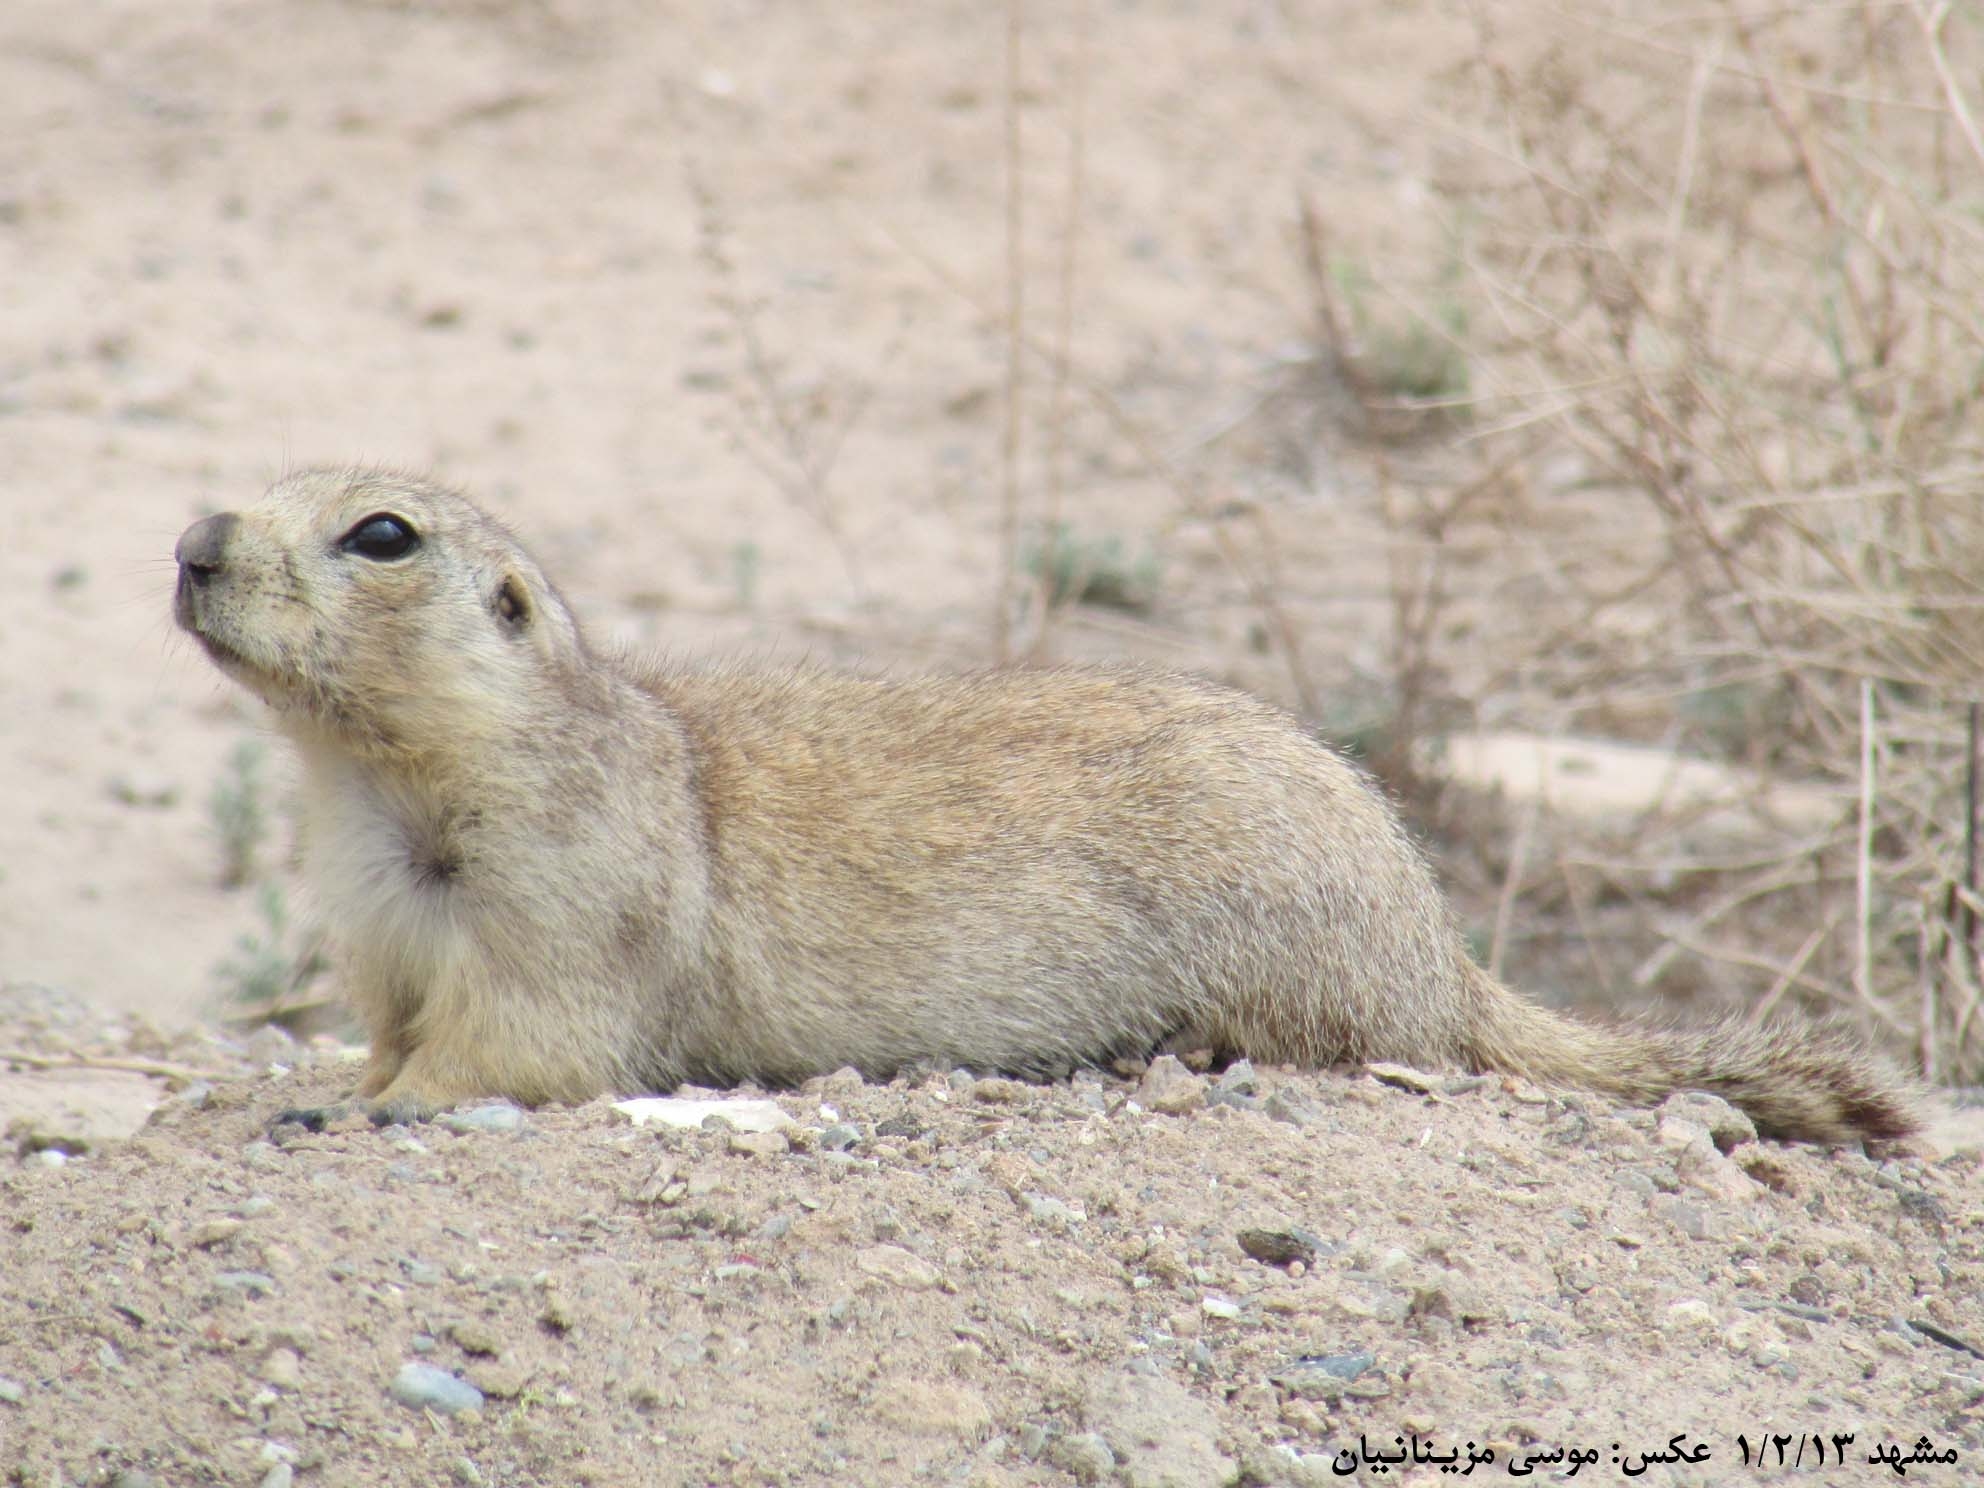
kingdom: Animalia
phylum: Chordata
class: Mammalia
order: Rodentia
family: Sciuridae
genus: Spermophilus
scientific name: Spermophilus fulvus
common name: Yellow ground squirrel
